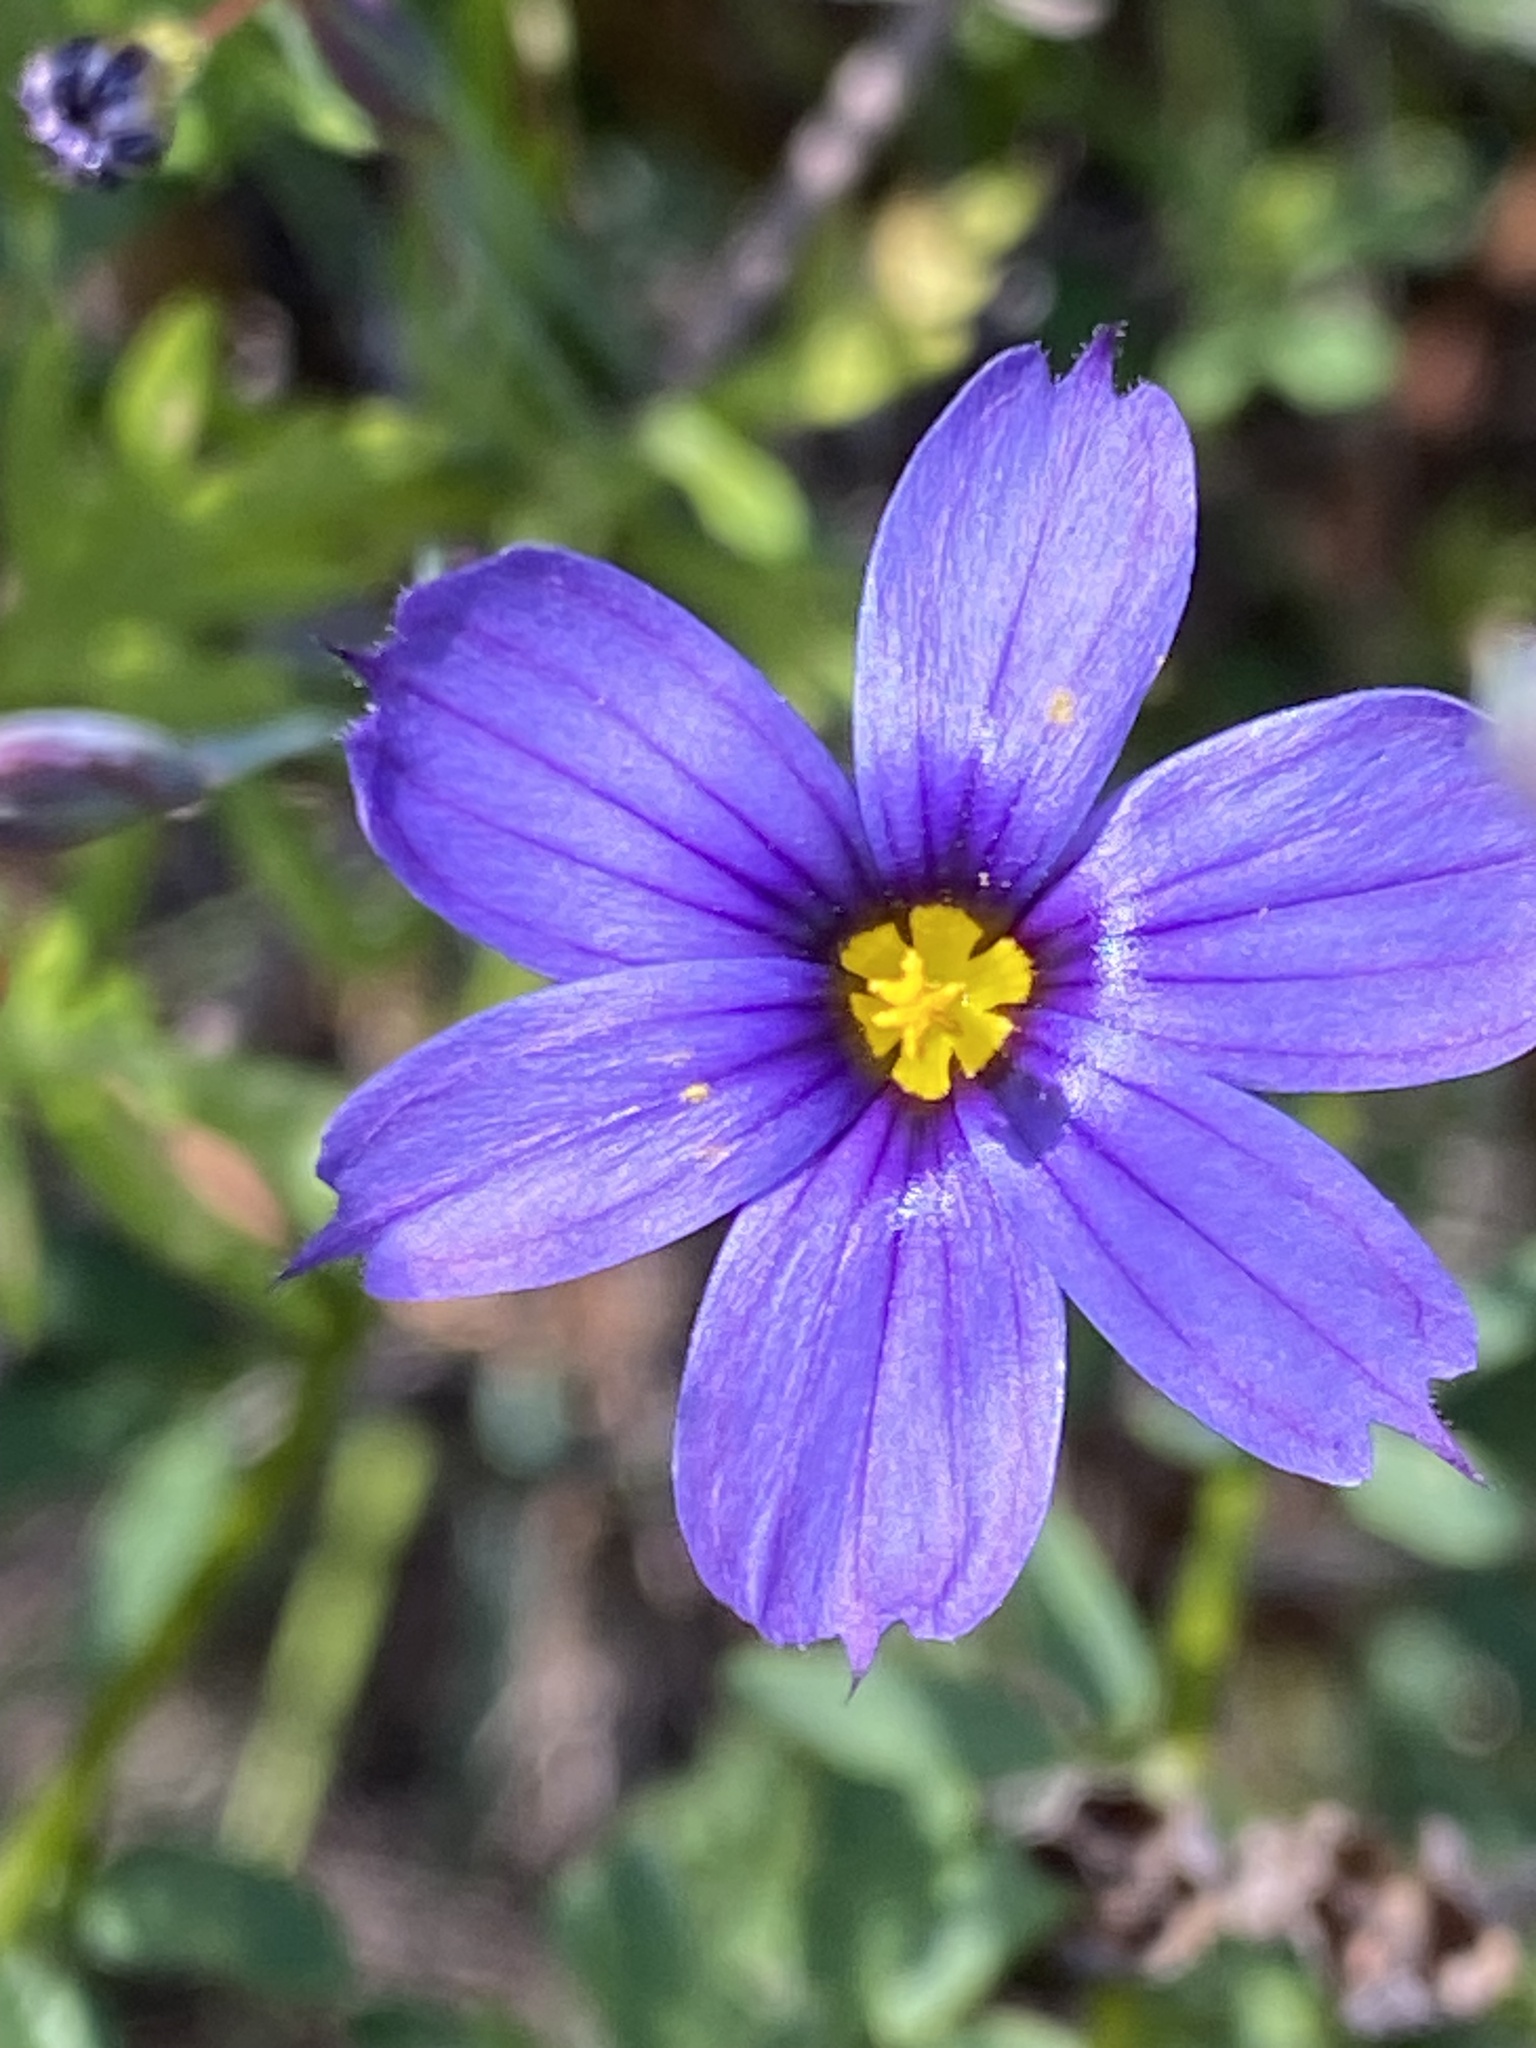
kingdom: Plantae
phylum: Tracheophyta
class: Liliopsida
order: Asparagales
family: Iridaceae
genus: Sisyrinchium
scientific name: Sisyrinchium bellum
